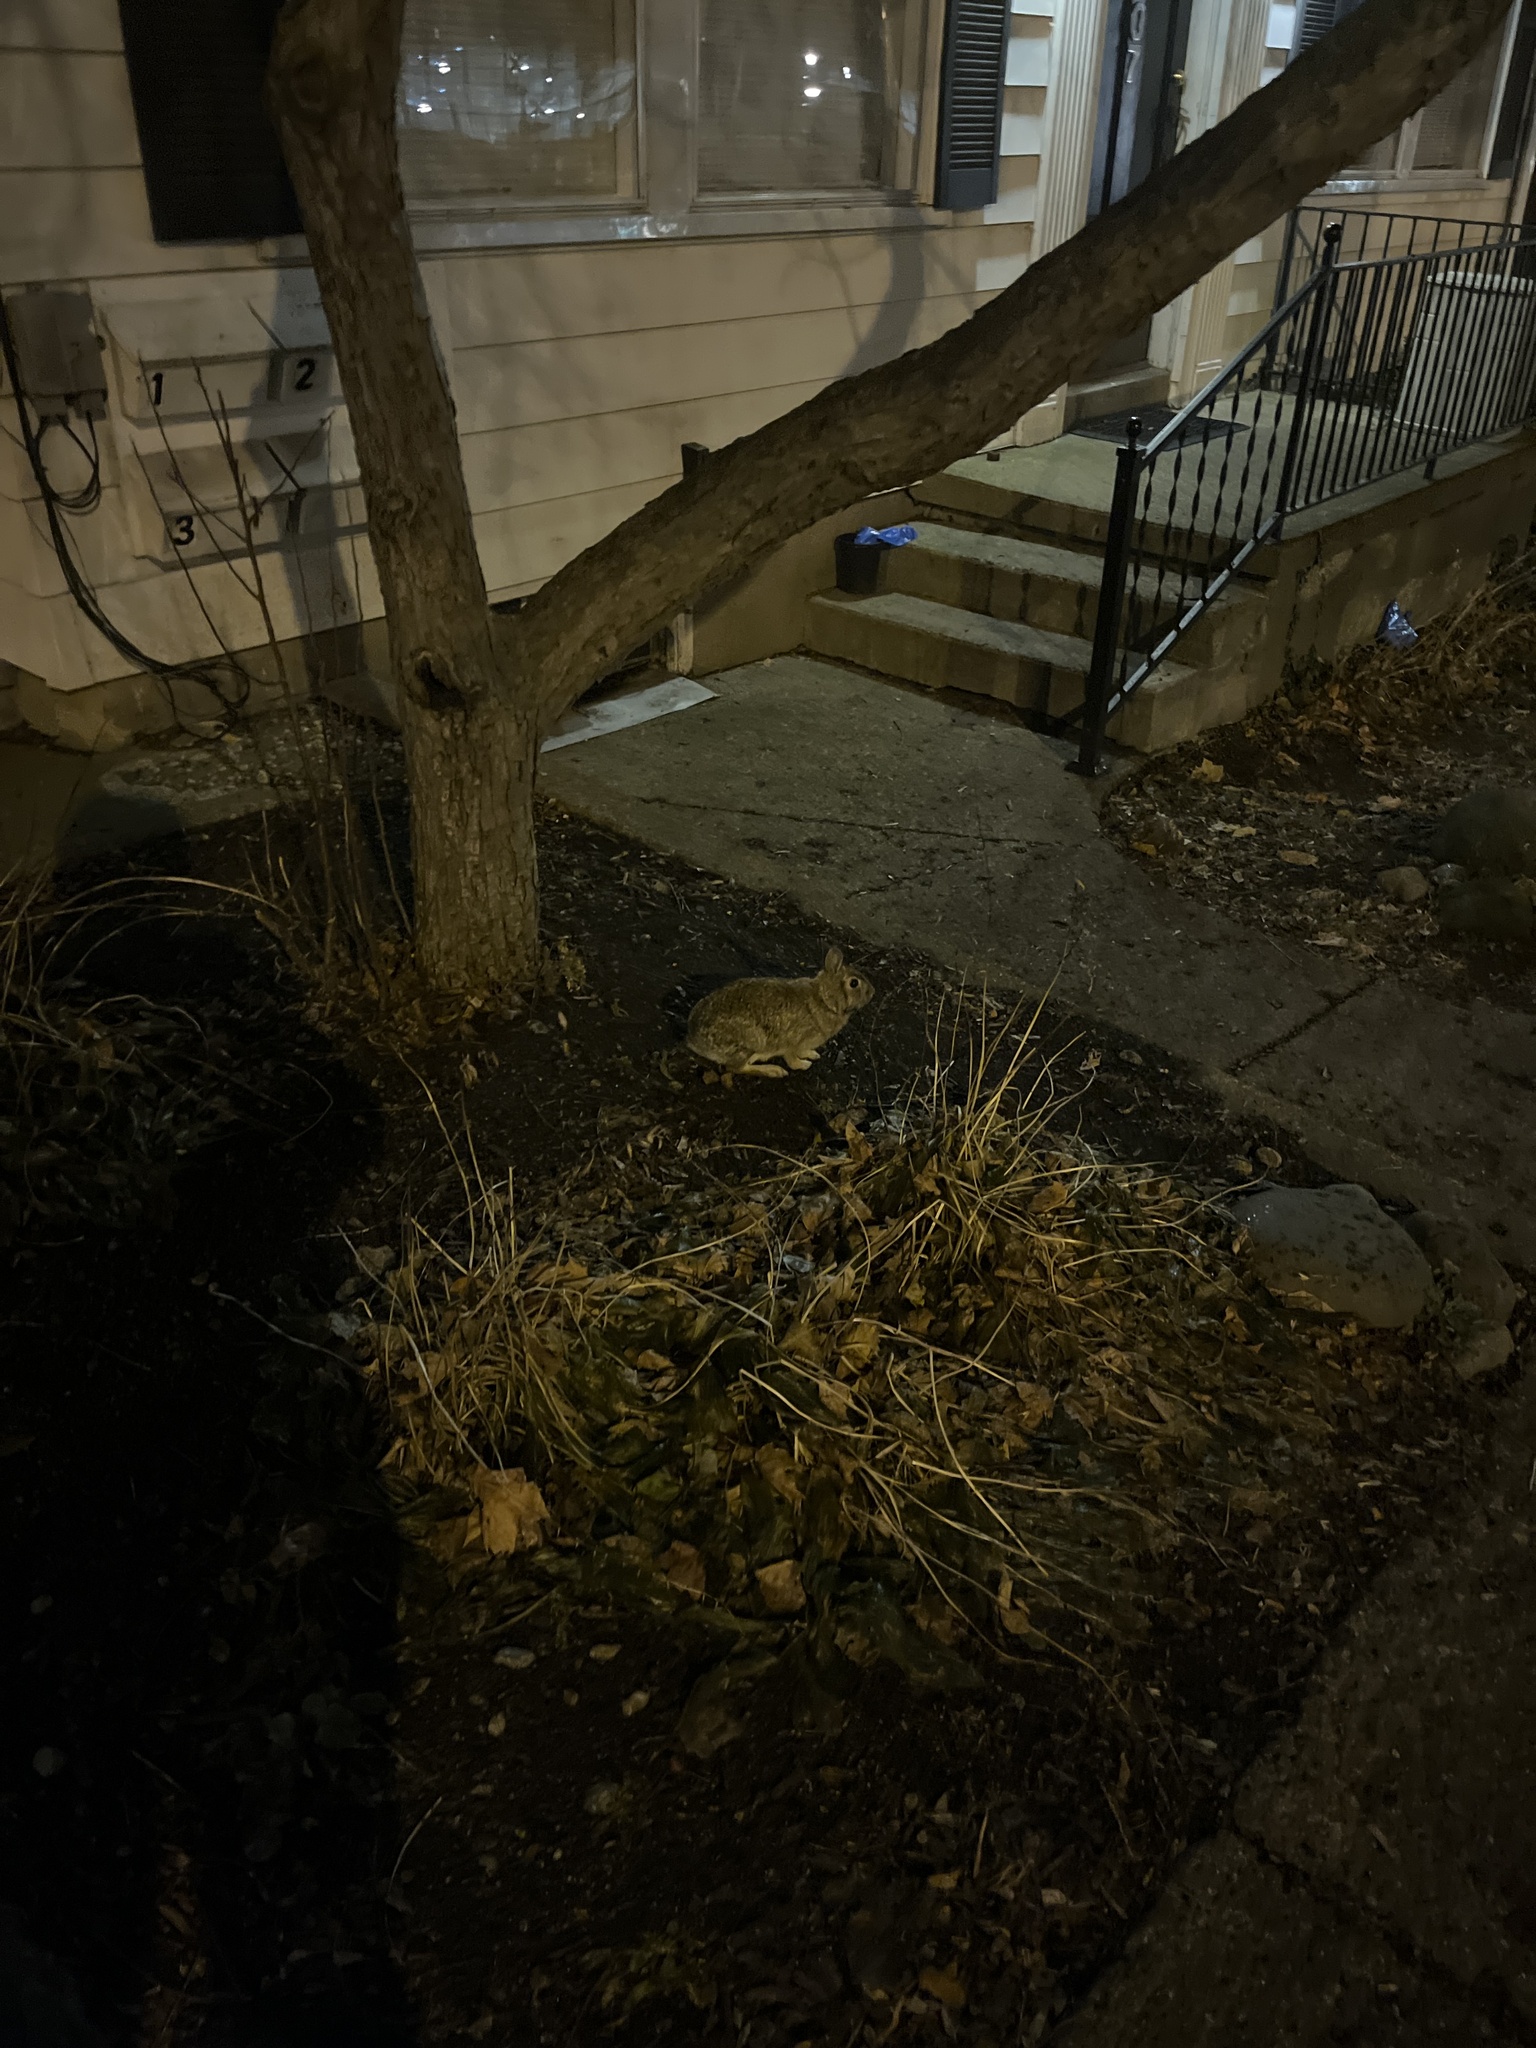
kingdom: Animalia
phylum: Chordata
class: Mammalia
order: Lagomorpha
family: Leporidae
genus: Sylvilagus
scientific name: Sylvilagus floridanus
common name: Eastern cottontail
